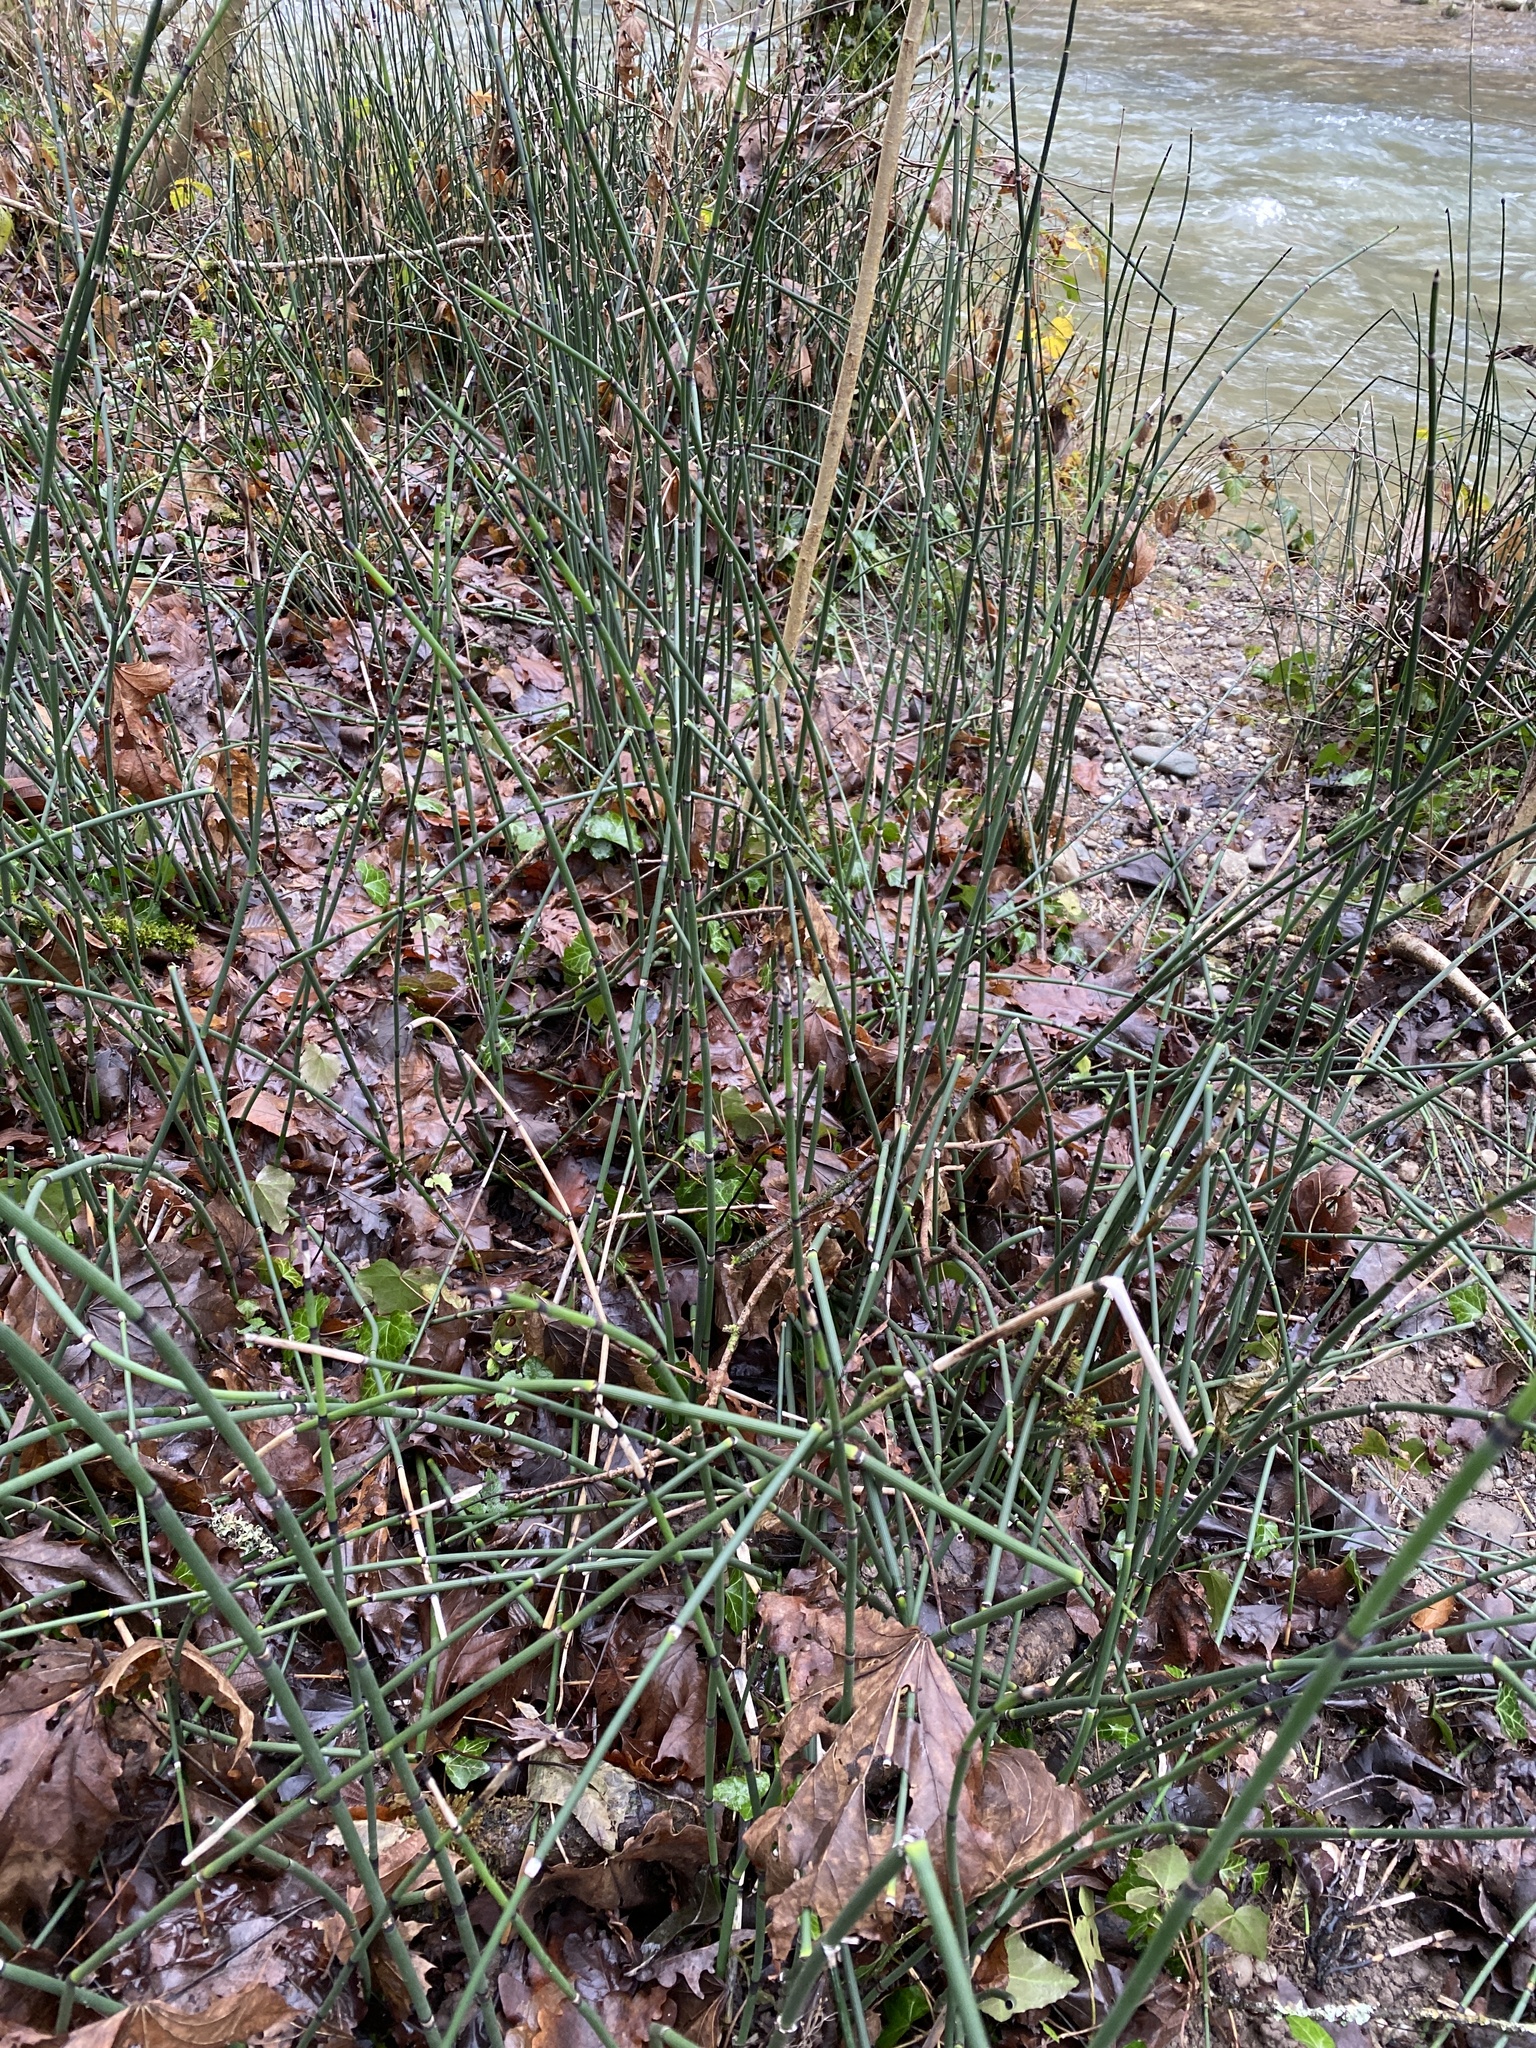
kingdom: Plantae
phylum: Tracheophyta
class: Polypodiopsida
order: Equisetales
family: Equisetaceae
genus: Equisetum
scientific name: Equisetum hyemale
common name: Rough horsetail
